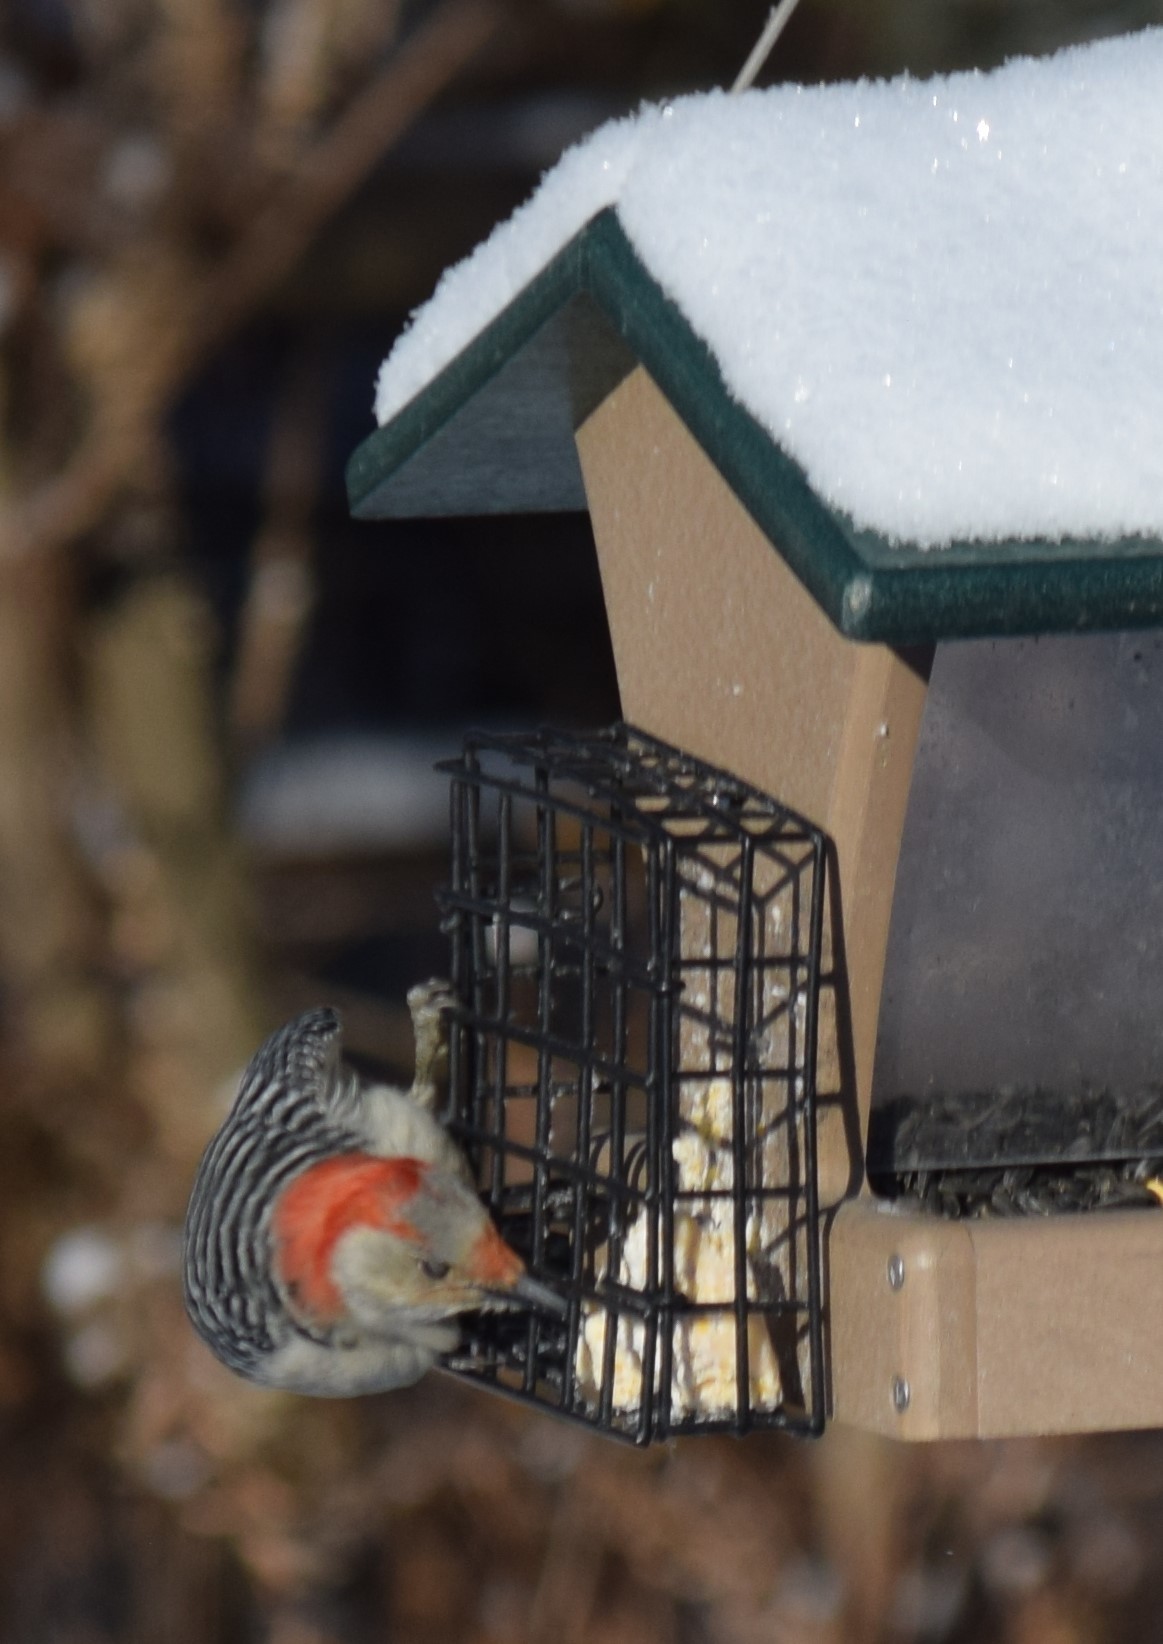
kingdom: Animalia
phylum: Chordata
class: Aves
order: Piciformes
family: Picidae
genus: Melanerpes
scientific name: Melanerpes carolinus
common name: Red-bellied woodpecker
